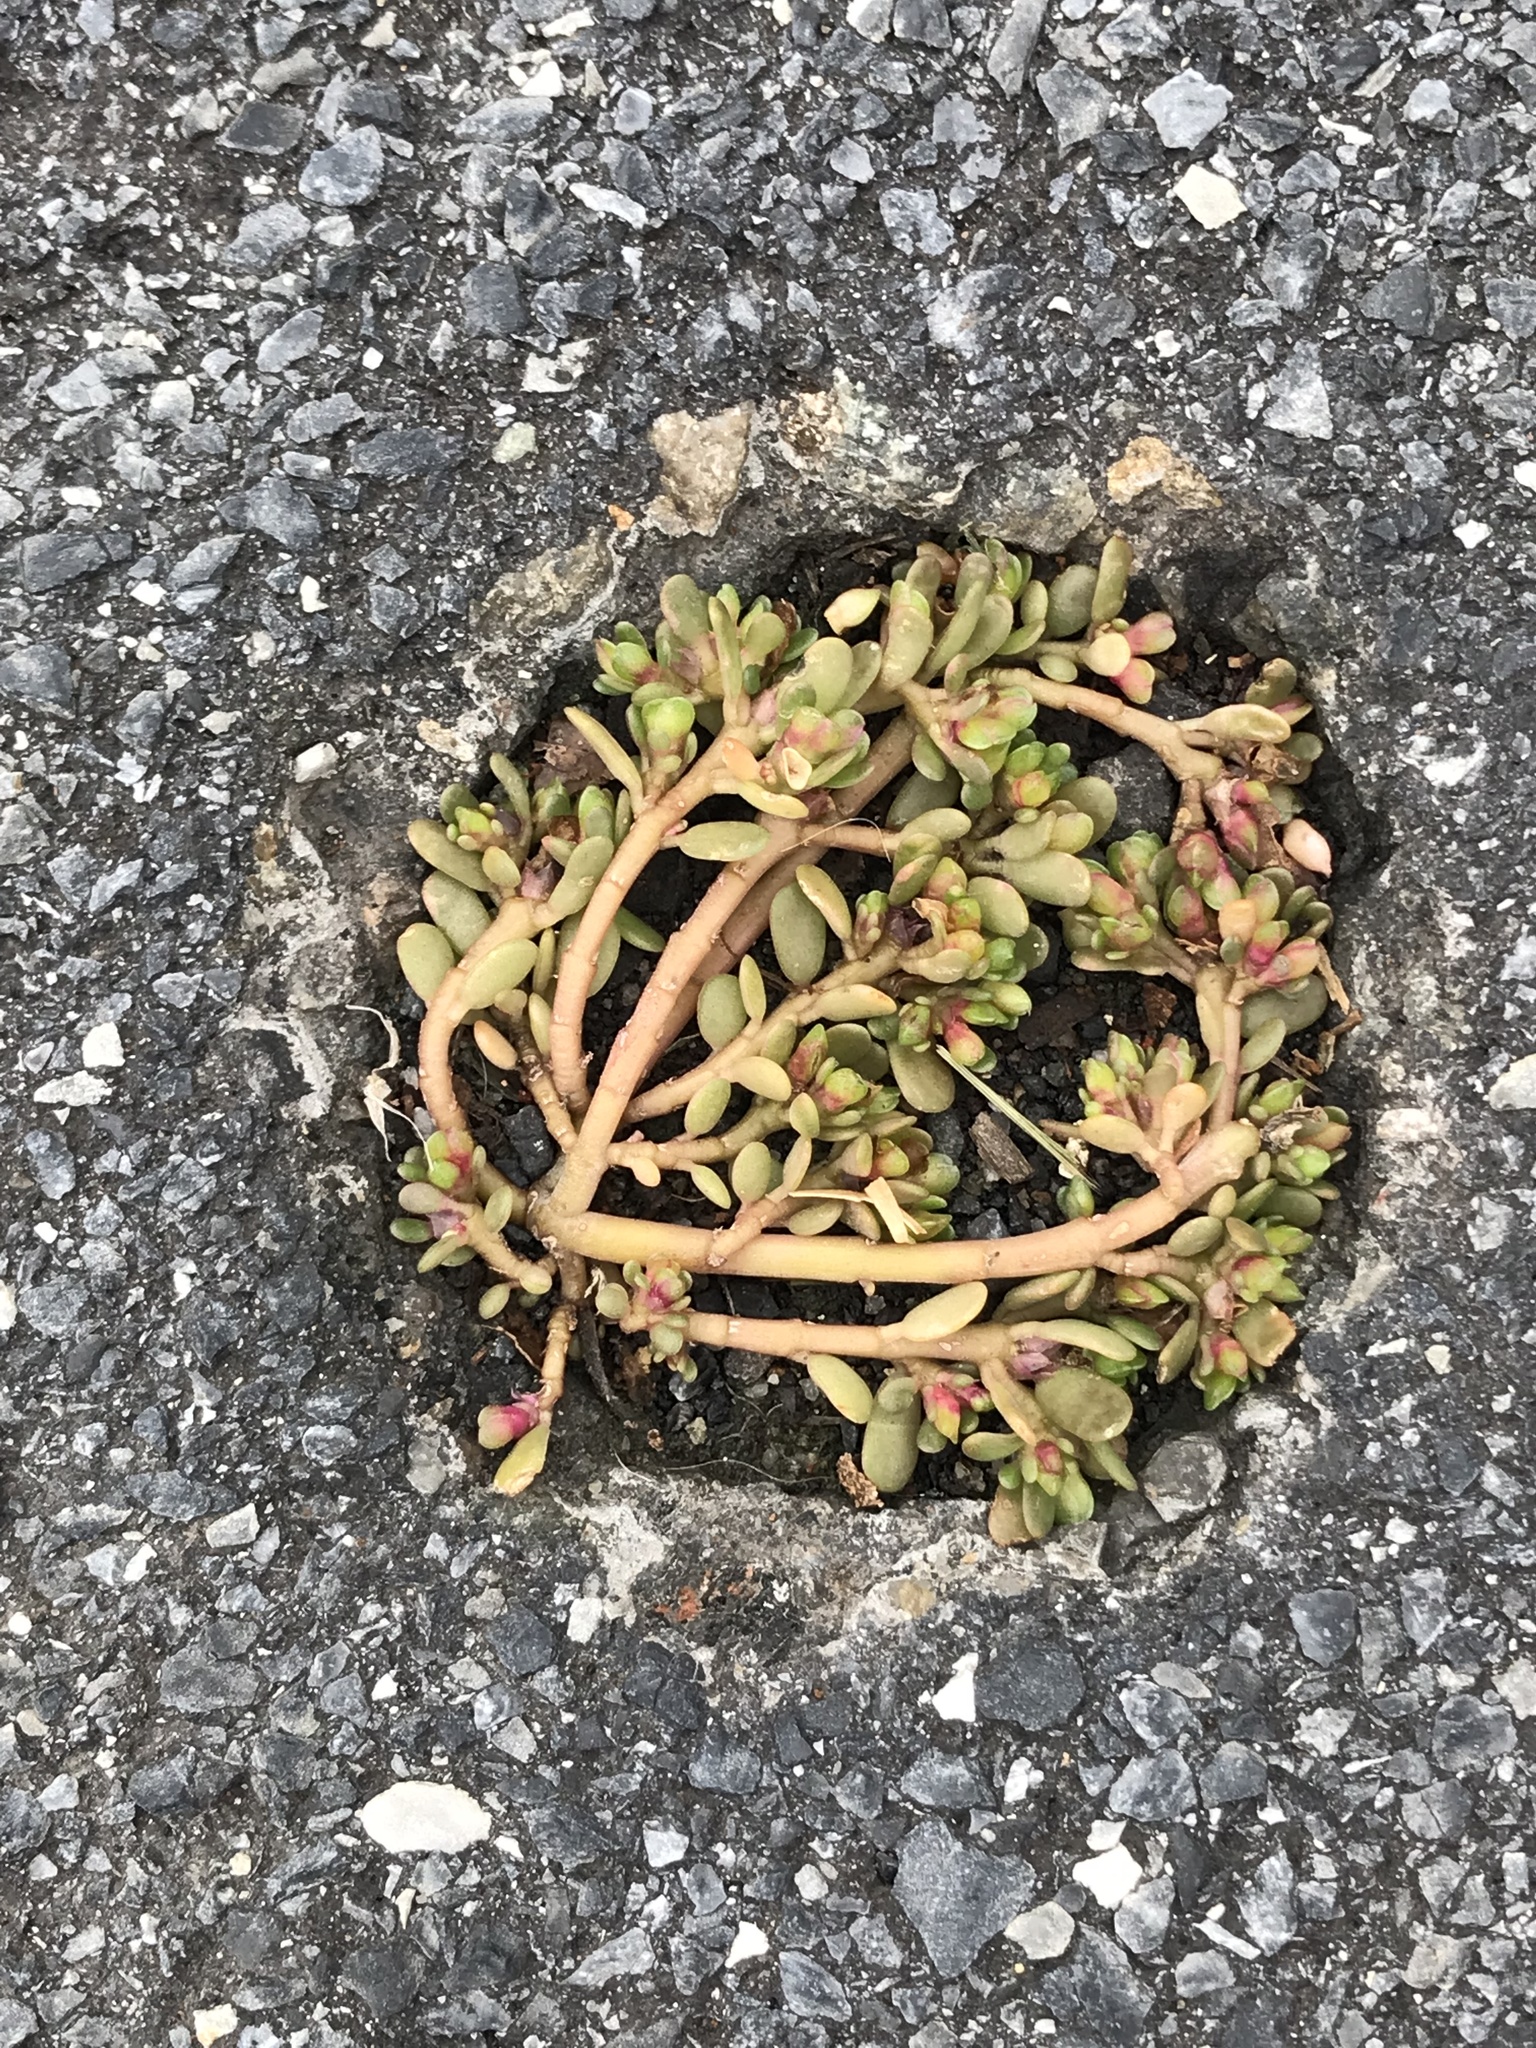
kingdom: Plantae
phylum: Tracheophyta
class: Magnoliopsida
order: Caryophyllales
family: Portulacaceae
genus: Portulaca
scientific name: Portulaca oleracea
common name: Common purslane
